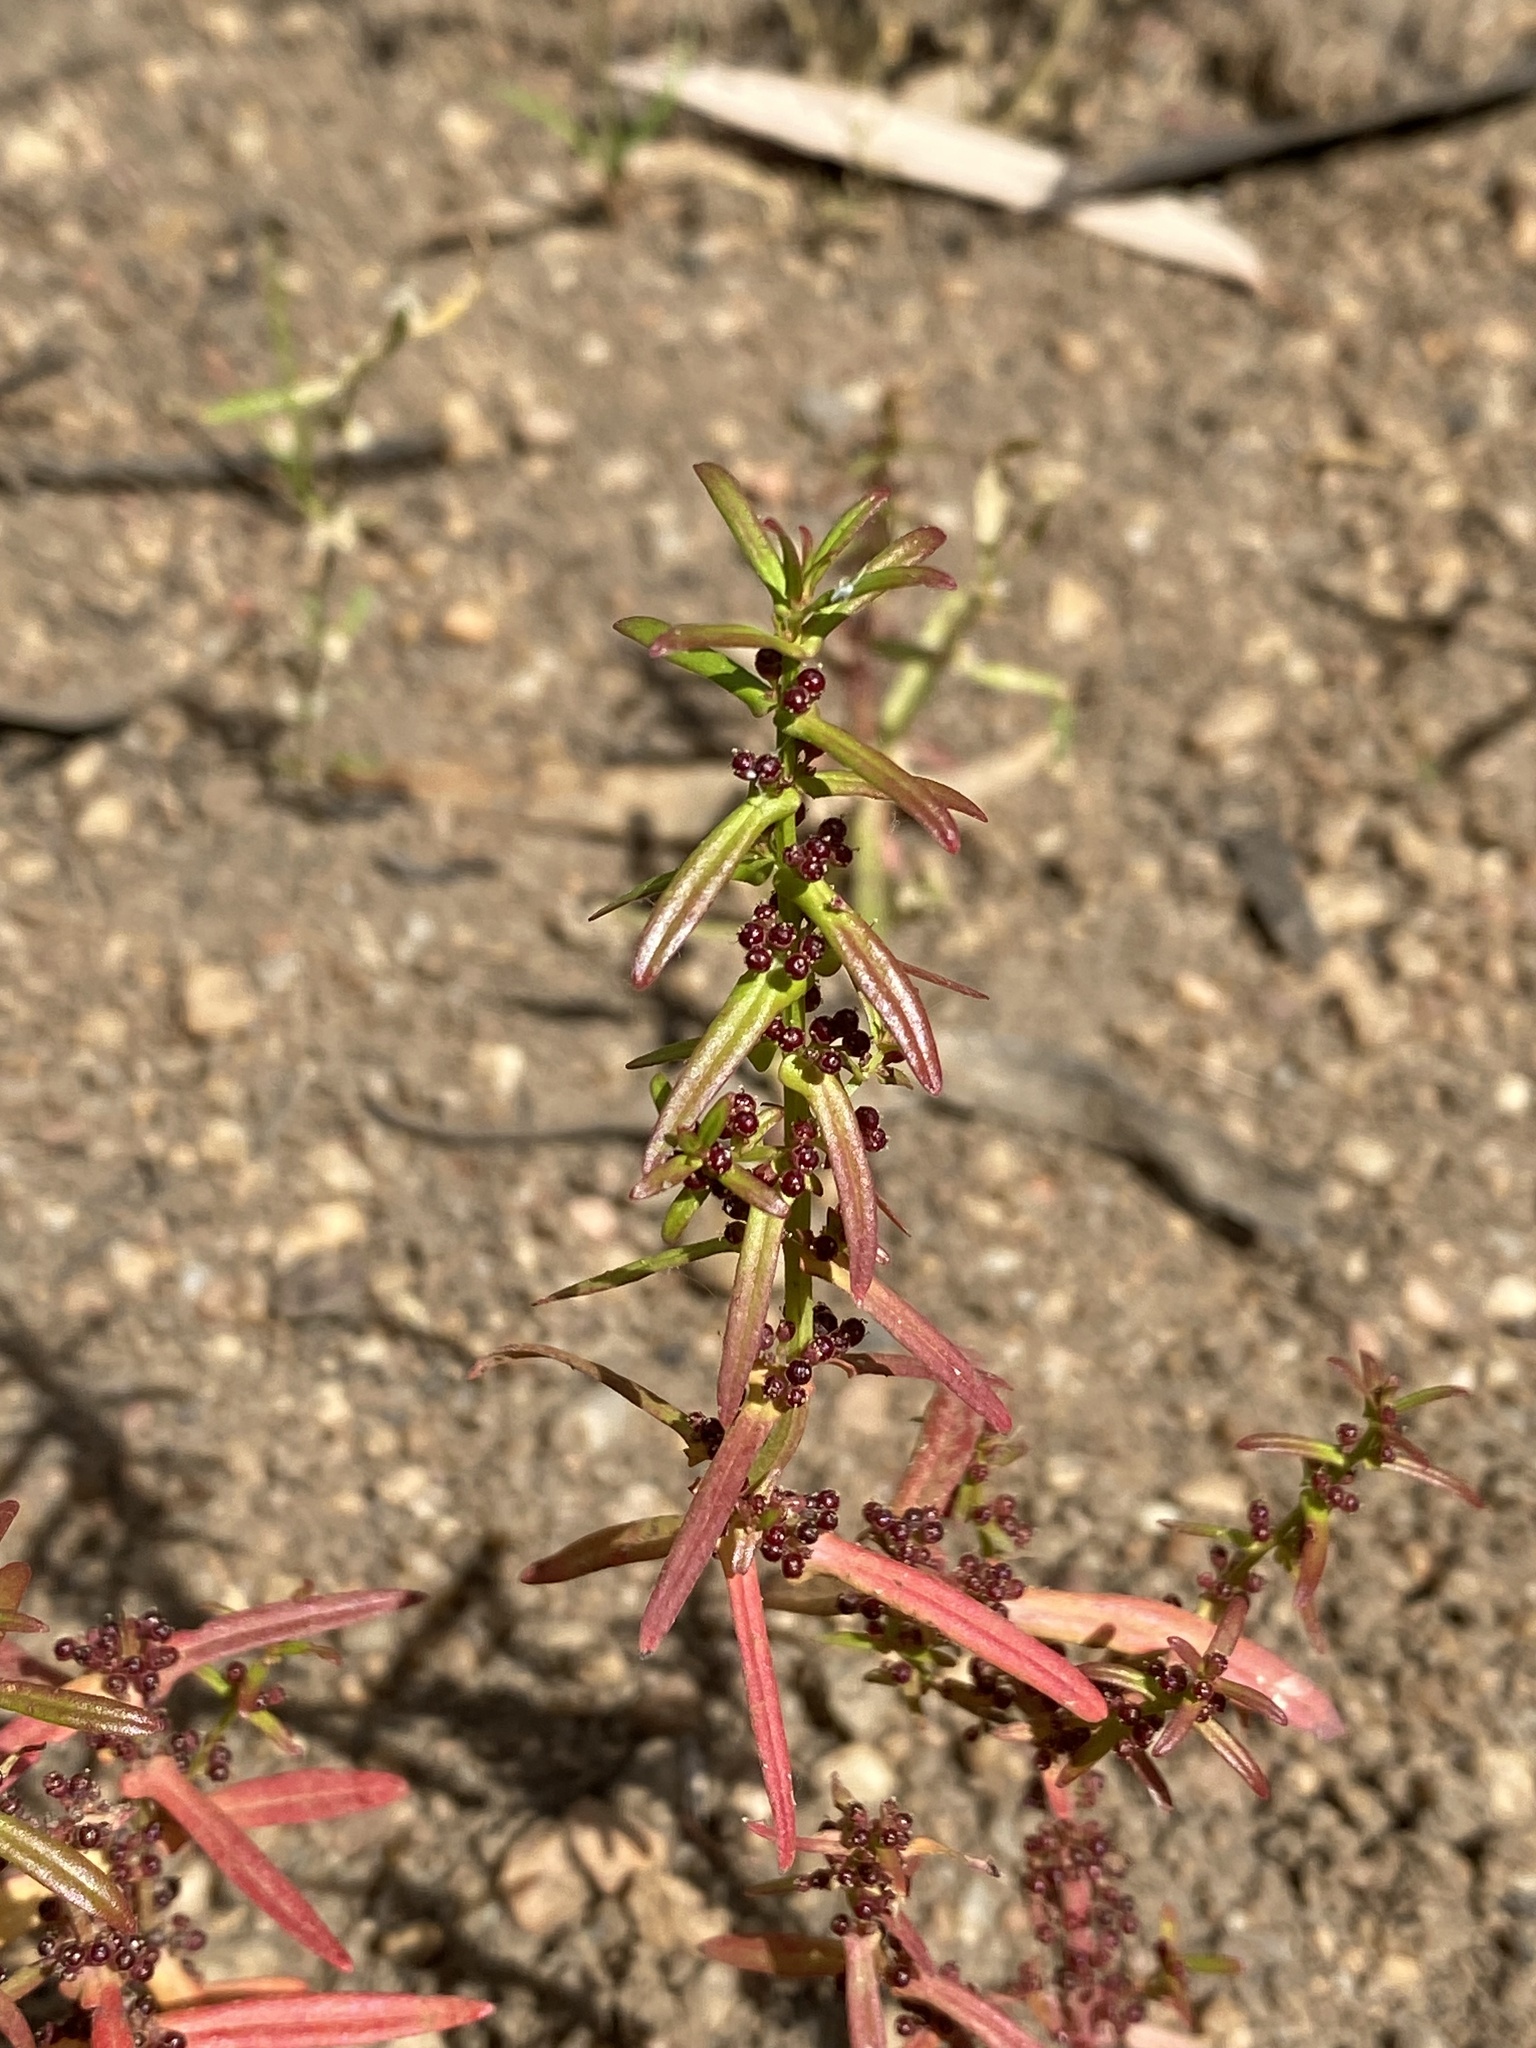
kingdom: Plantae
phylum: Tracheophyta
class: Magnoliopsida
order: Myrtales
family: Lythraceae
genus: Ammannia
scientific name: Ammannia auriculata
